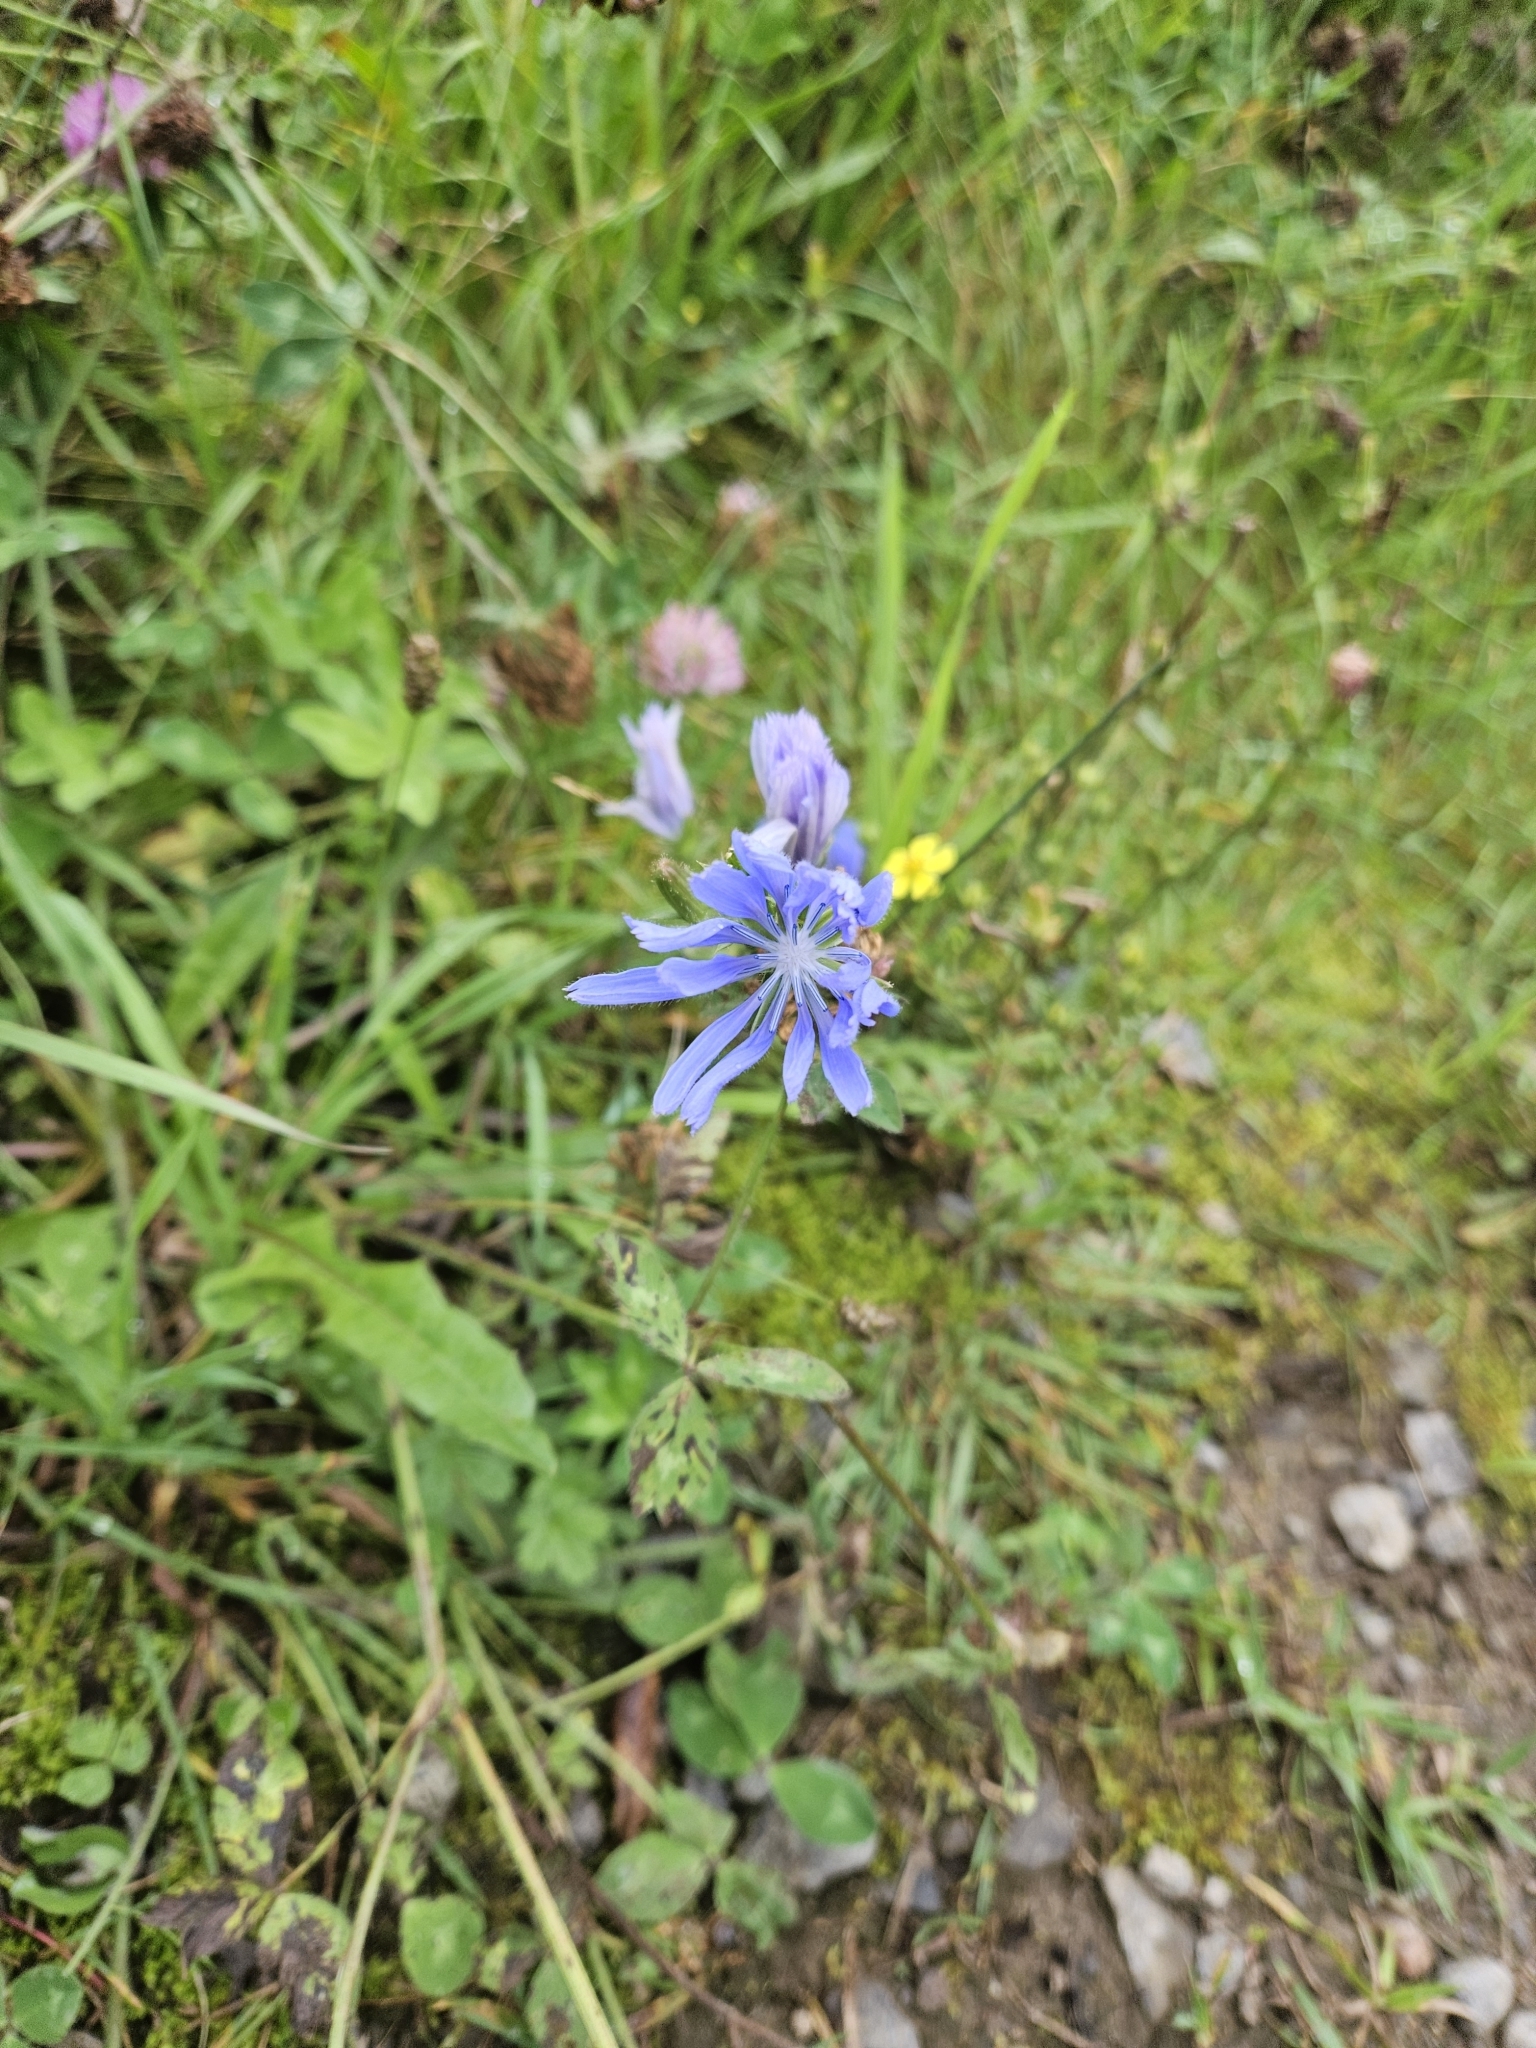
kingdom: Plantae
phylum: Tracheophyta
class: Magnoliopsida
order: Asterales
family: Asteraceae
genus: Cichorium
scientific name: Cichorium intybus
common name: Chicory
